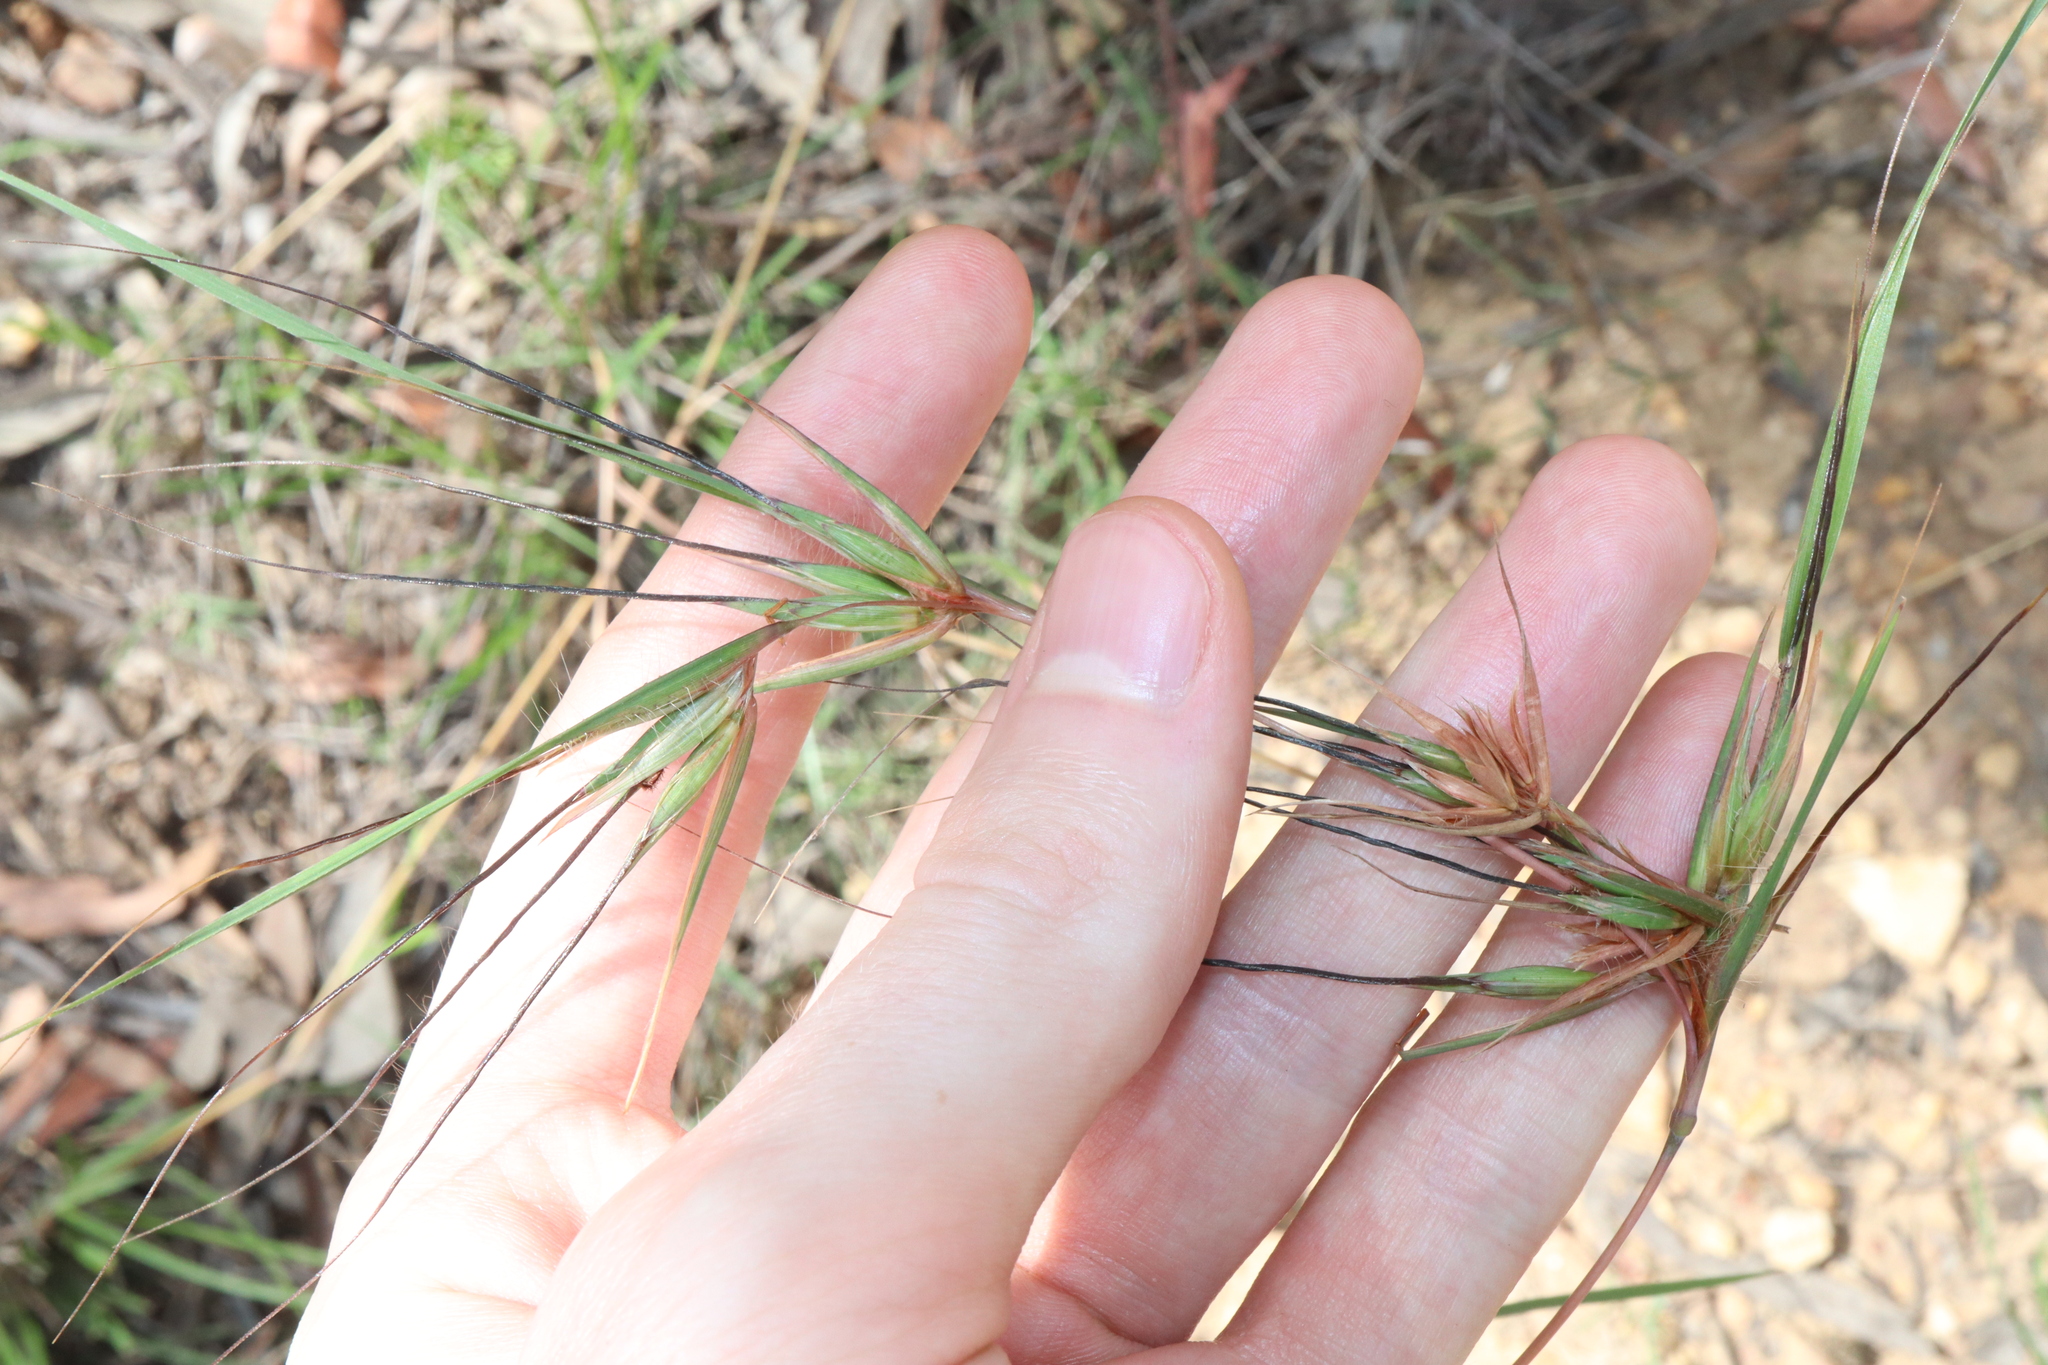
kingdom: Plantae
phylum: Tracheophyta
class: Liliopsida
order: Poales
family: Poaceae
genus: Themeda
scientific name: Themeda triandra
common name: Kangaroo grass
